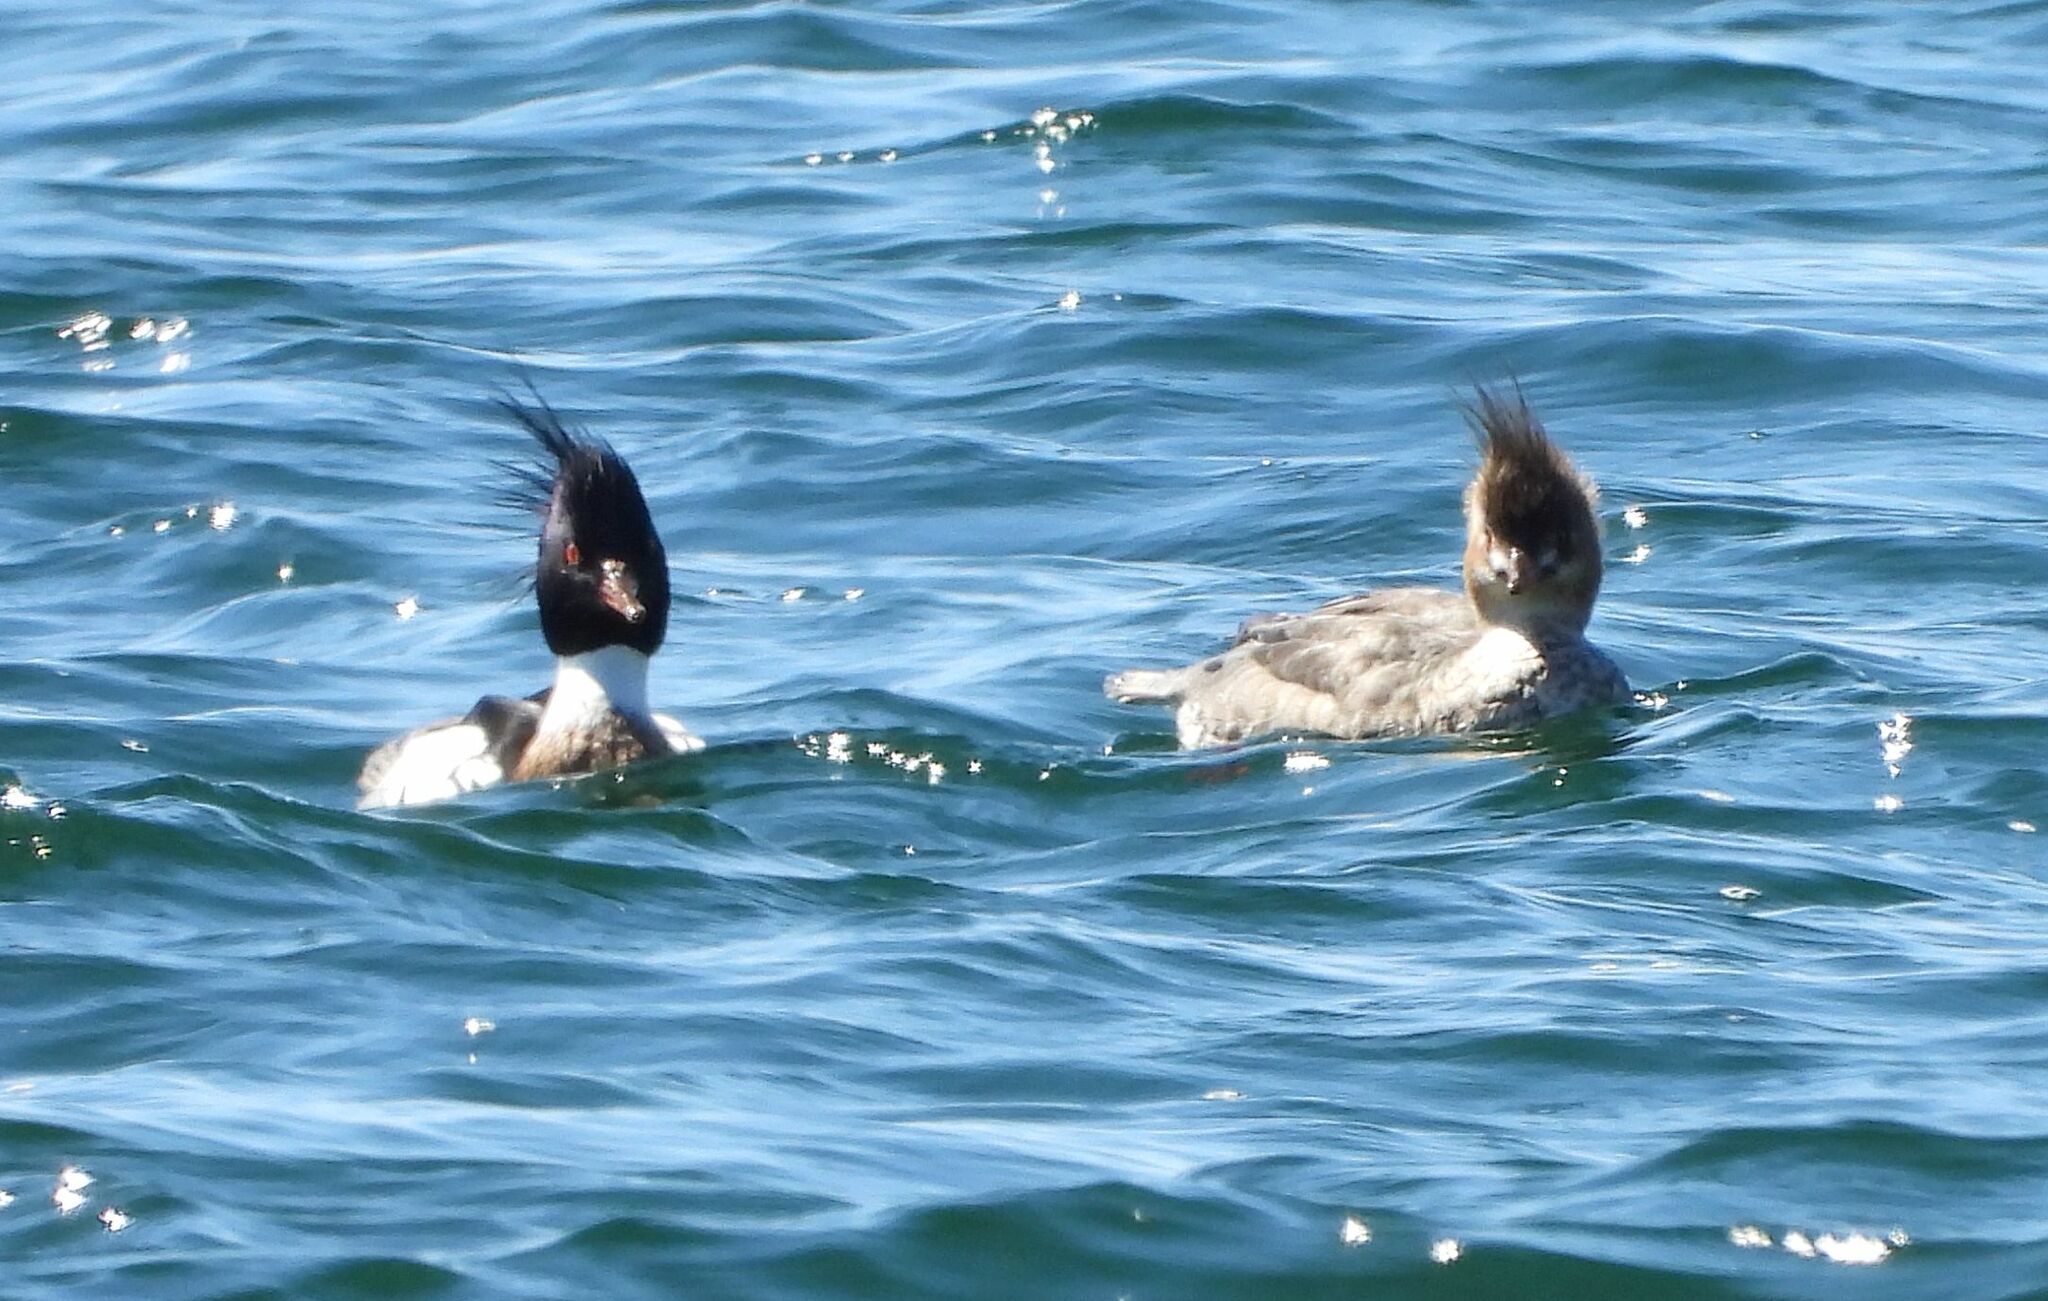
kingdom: Animalia
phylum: Chordata
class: Aves
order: Anseriformes
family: Anatidae
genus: Mergus
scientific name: Mergus serrator
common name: Red-breasted merganser
